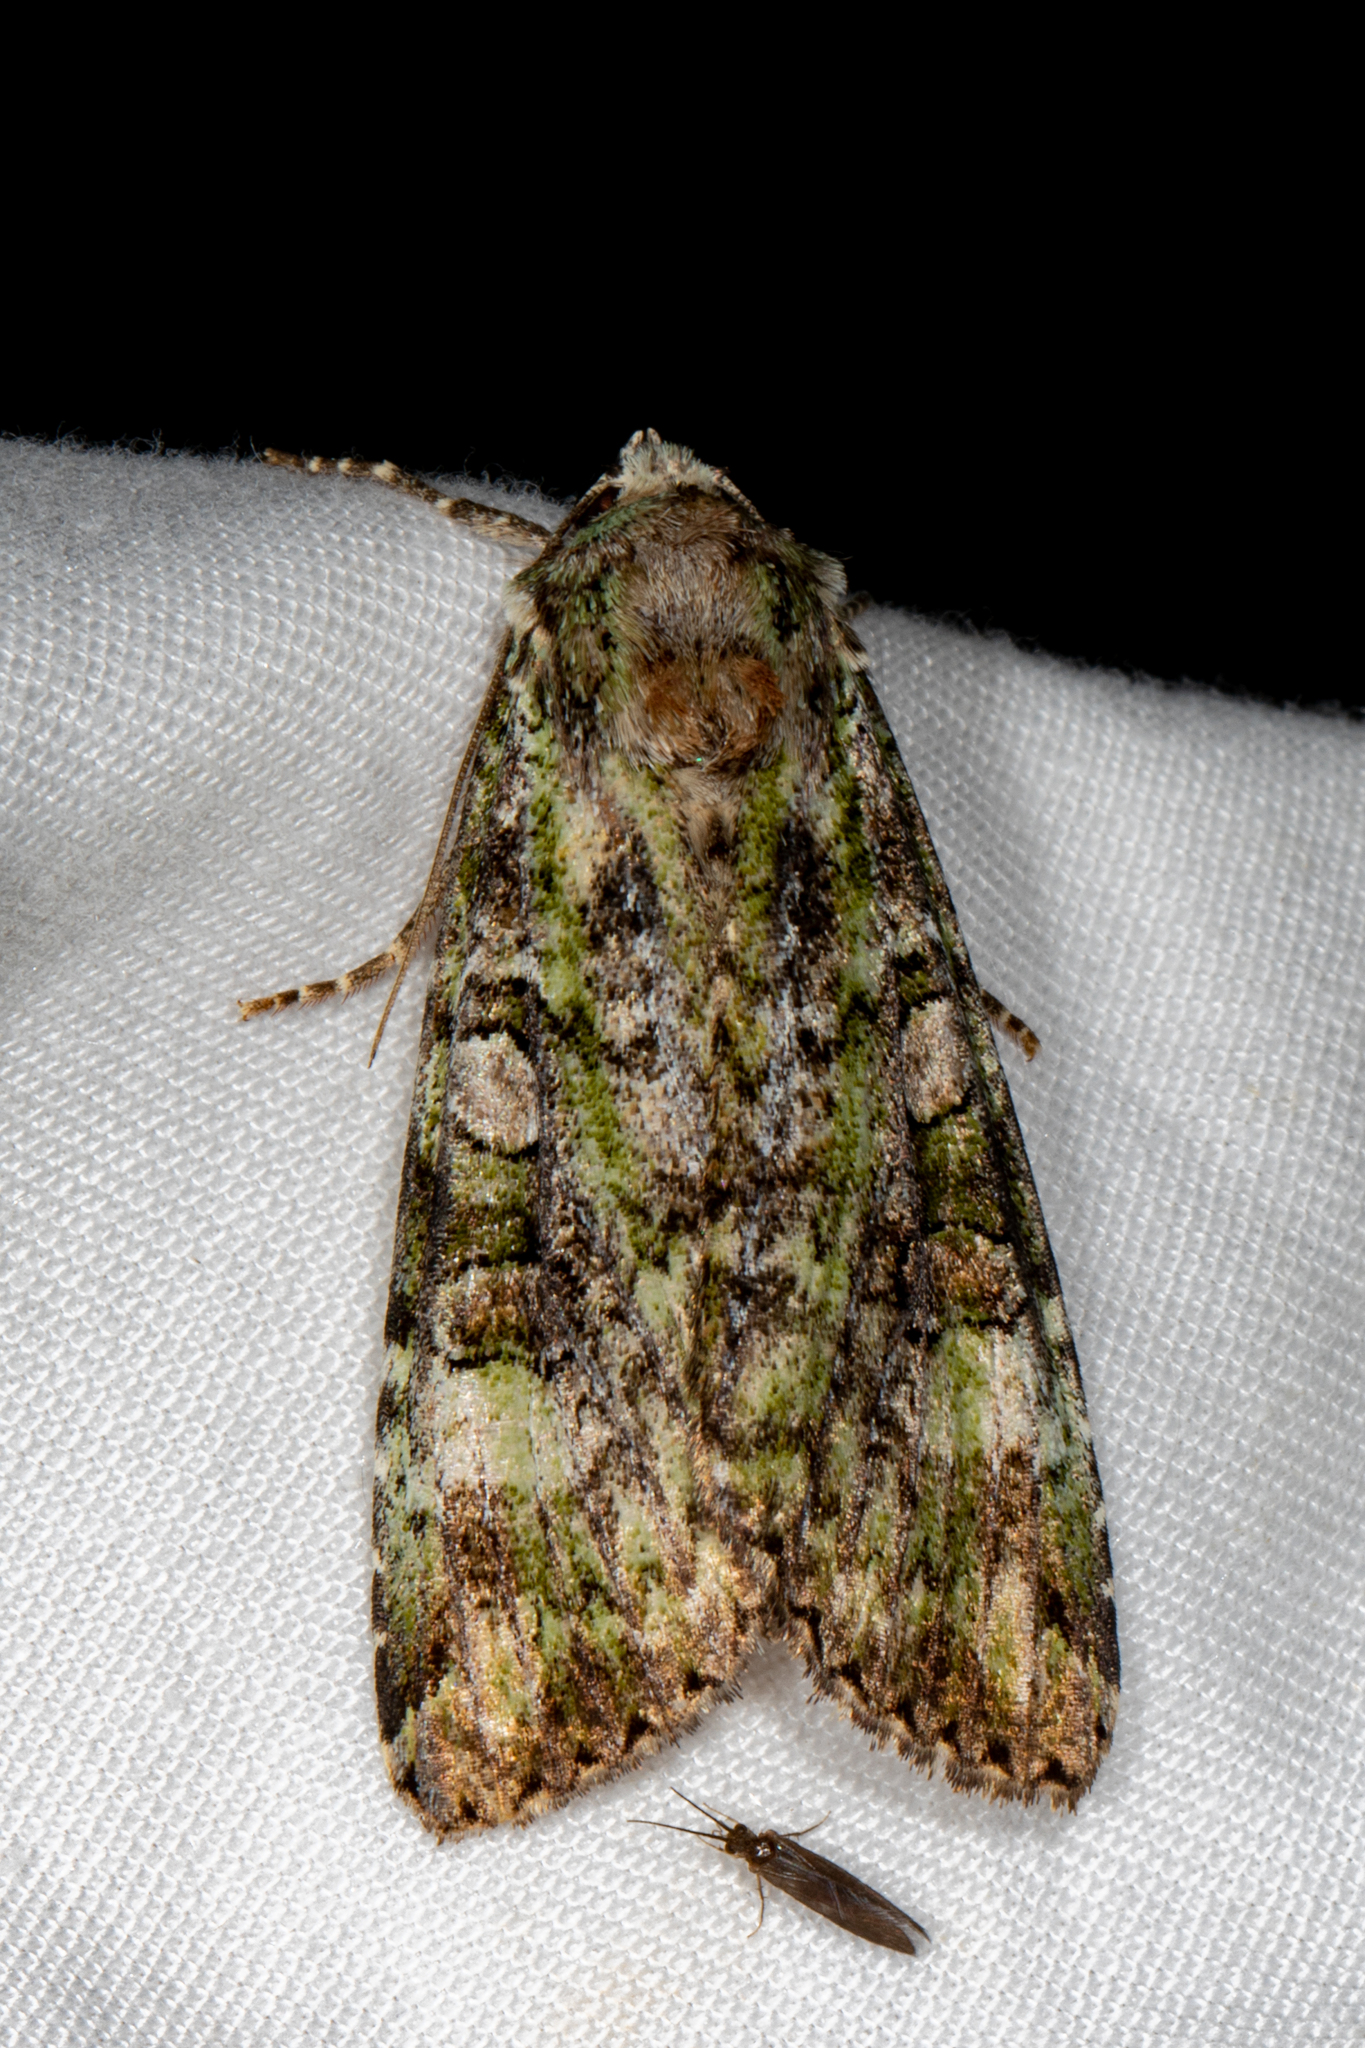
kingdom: Animalia
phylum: Arthropoda
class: Insecta
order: Lepidoptera
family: Noctuidae
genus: Anaplectoides
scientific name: Anaplectoides prasina
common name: Green arches
